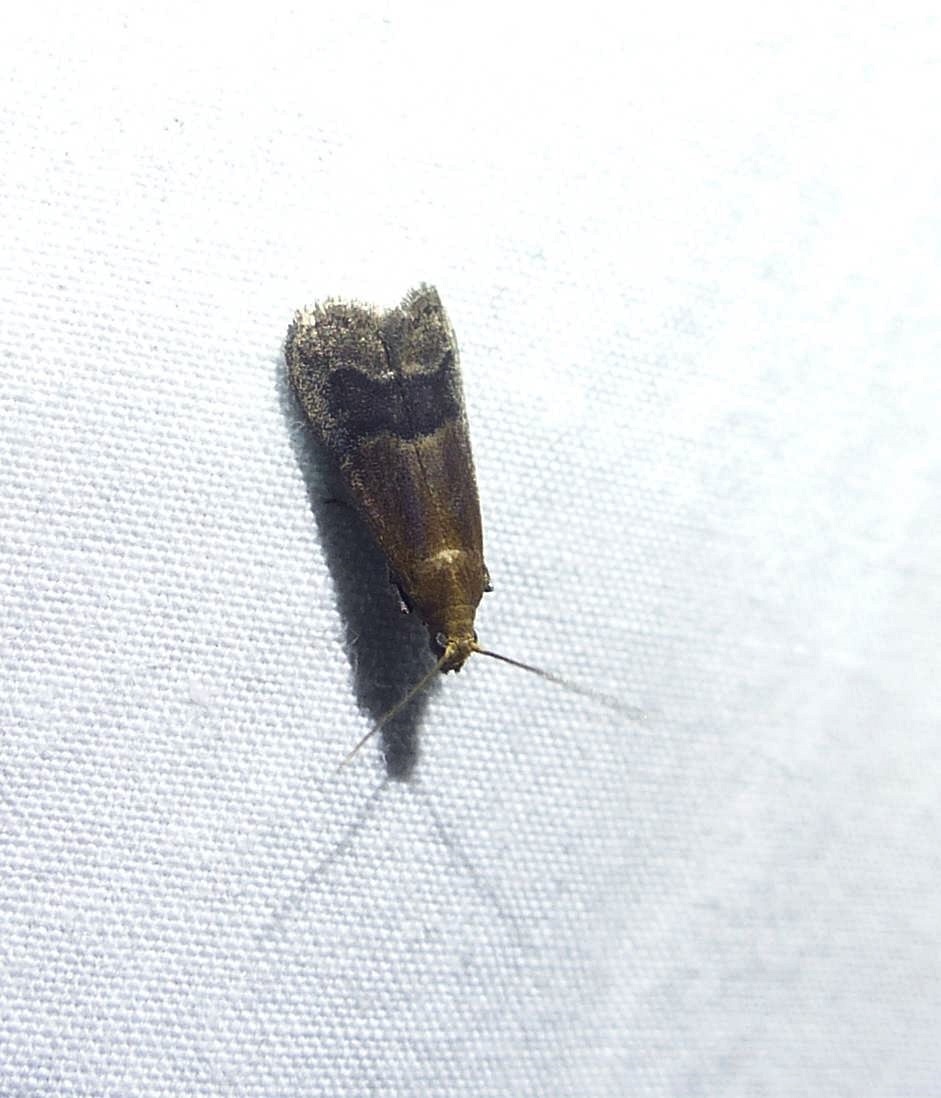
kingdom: Animalia
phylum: Arthropoda
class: Insecta
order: Lepidoptera
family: Pyralidae
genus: Eulogia
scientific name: Eulogia ochrifrontella
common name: Broad-banded eulogia moth
